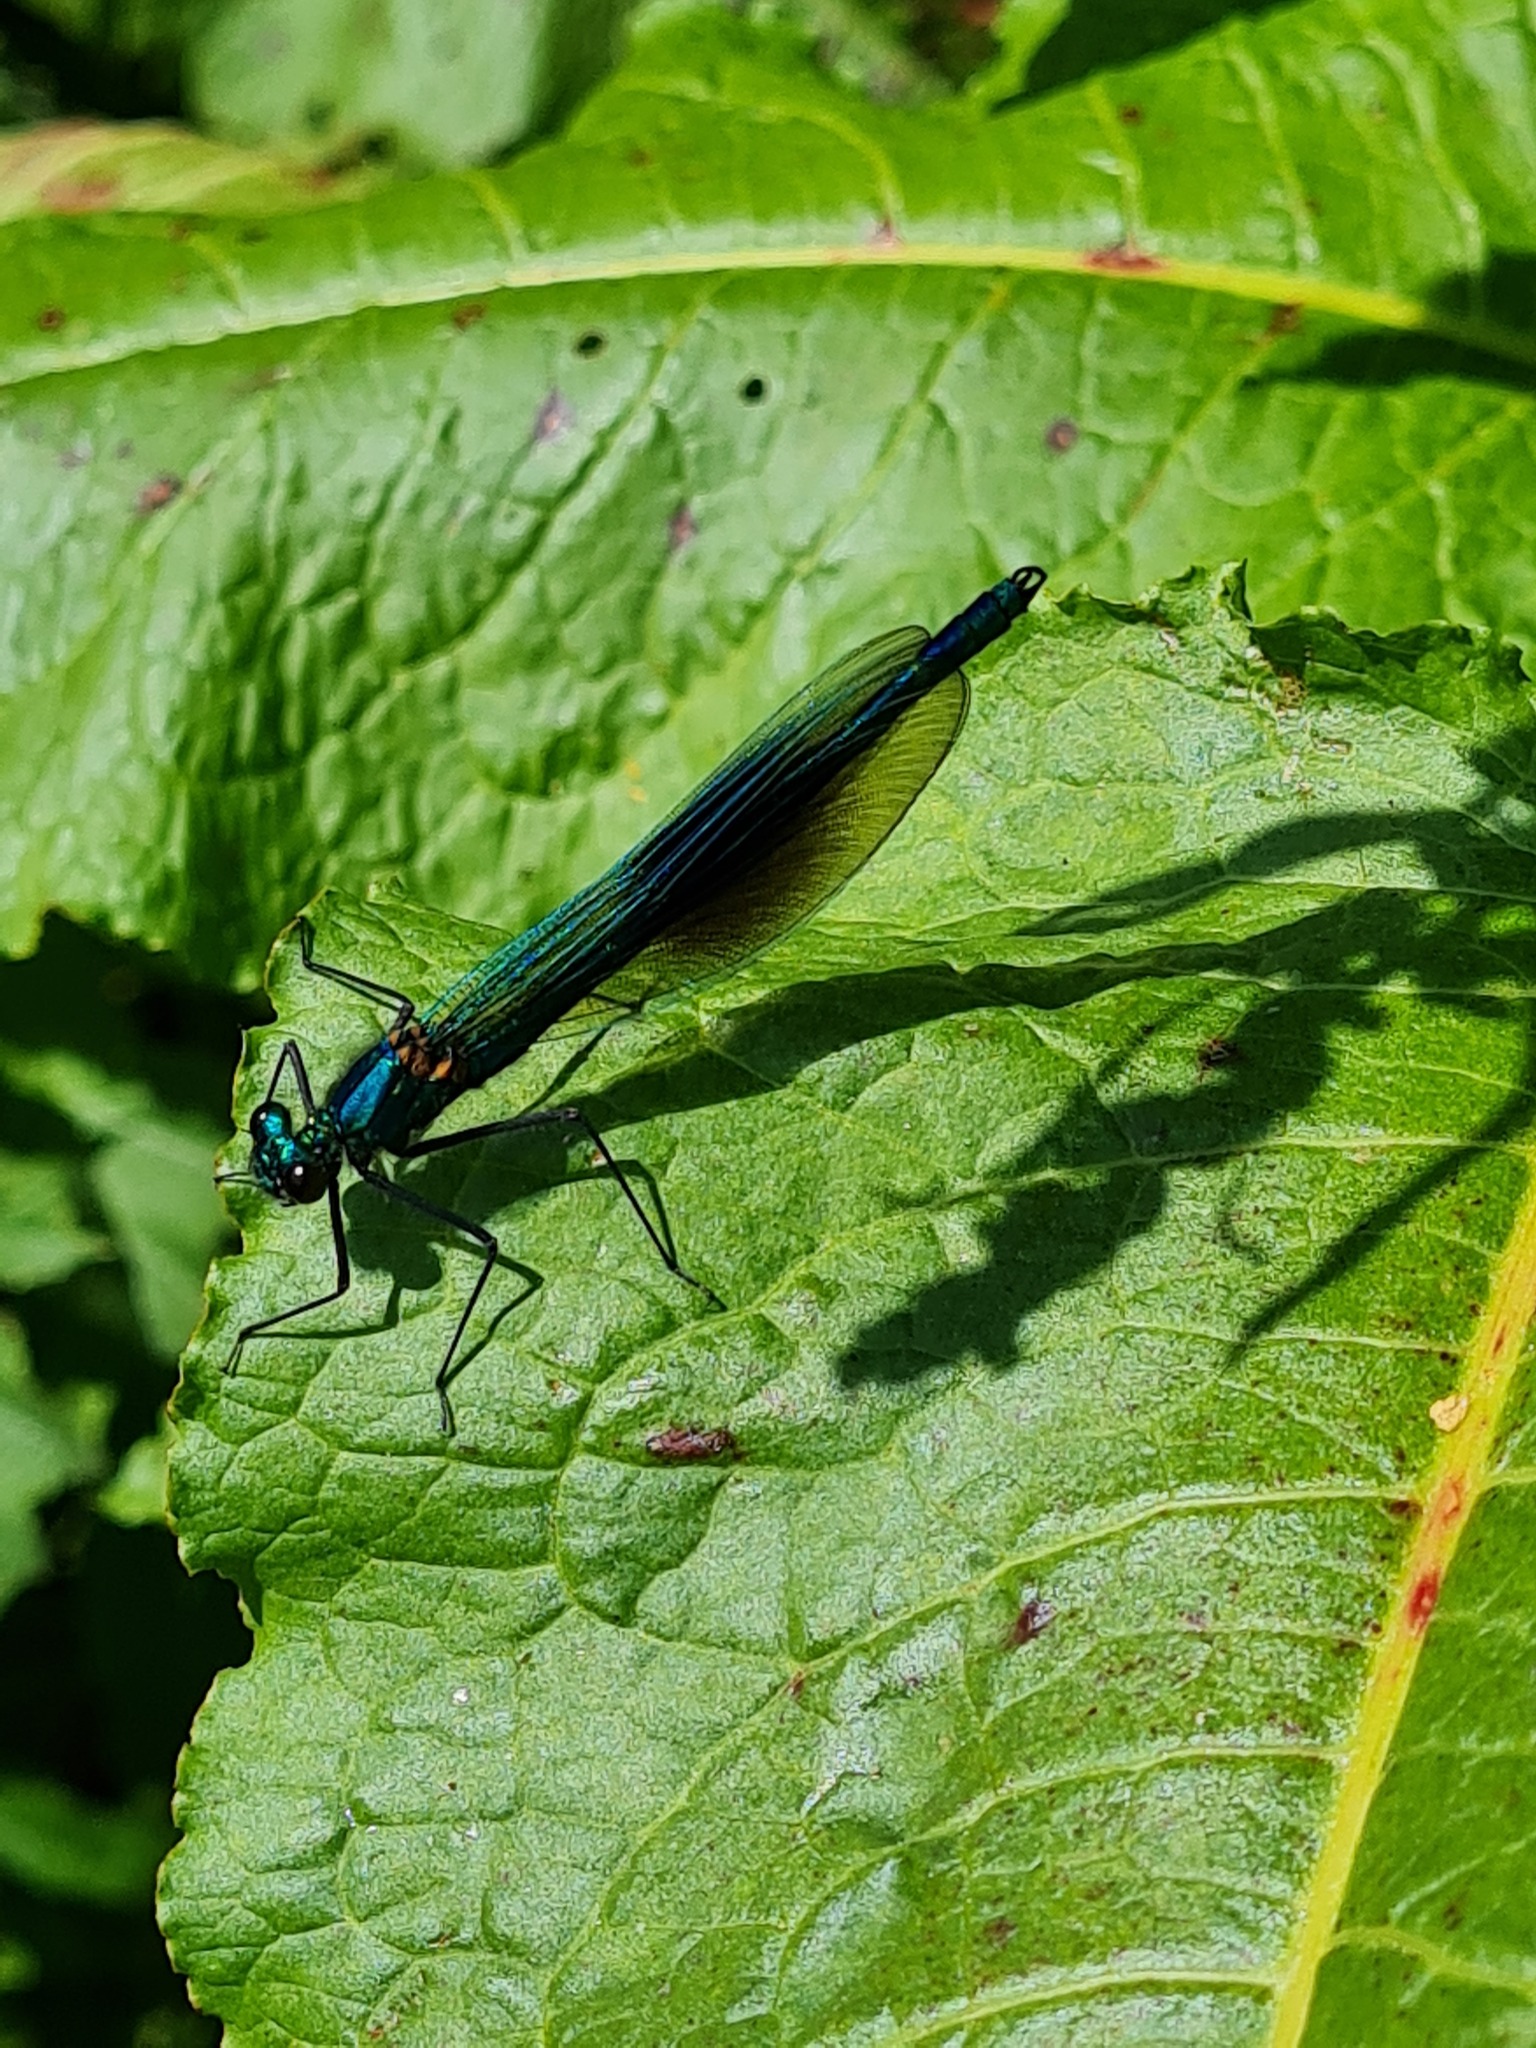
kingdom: Animalia
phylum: Arthropoda
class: Insecta
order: Odonata
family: Calopterygidae
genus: Calopteryx
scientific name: Calopteryx splendens
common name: Banded demoiselle
